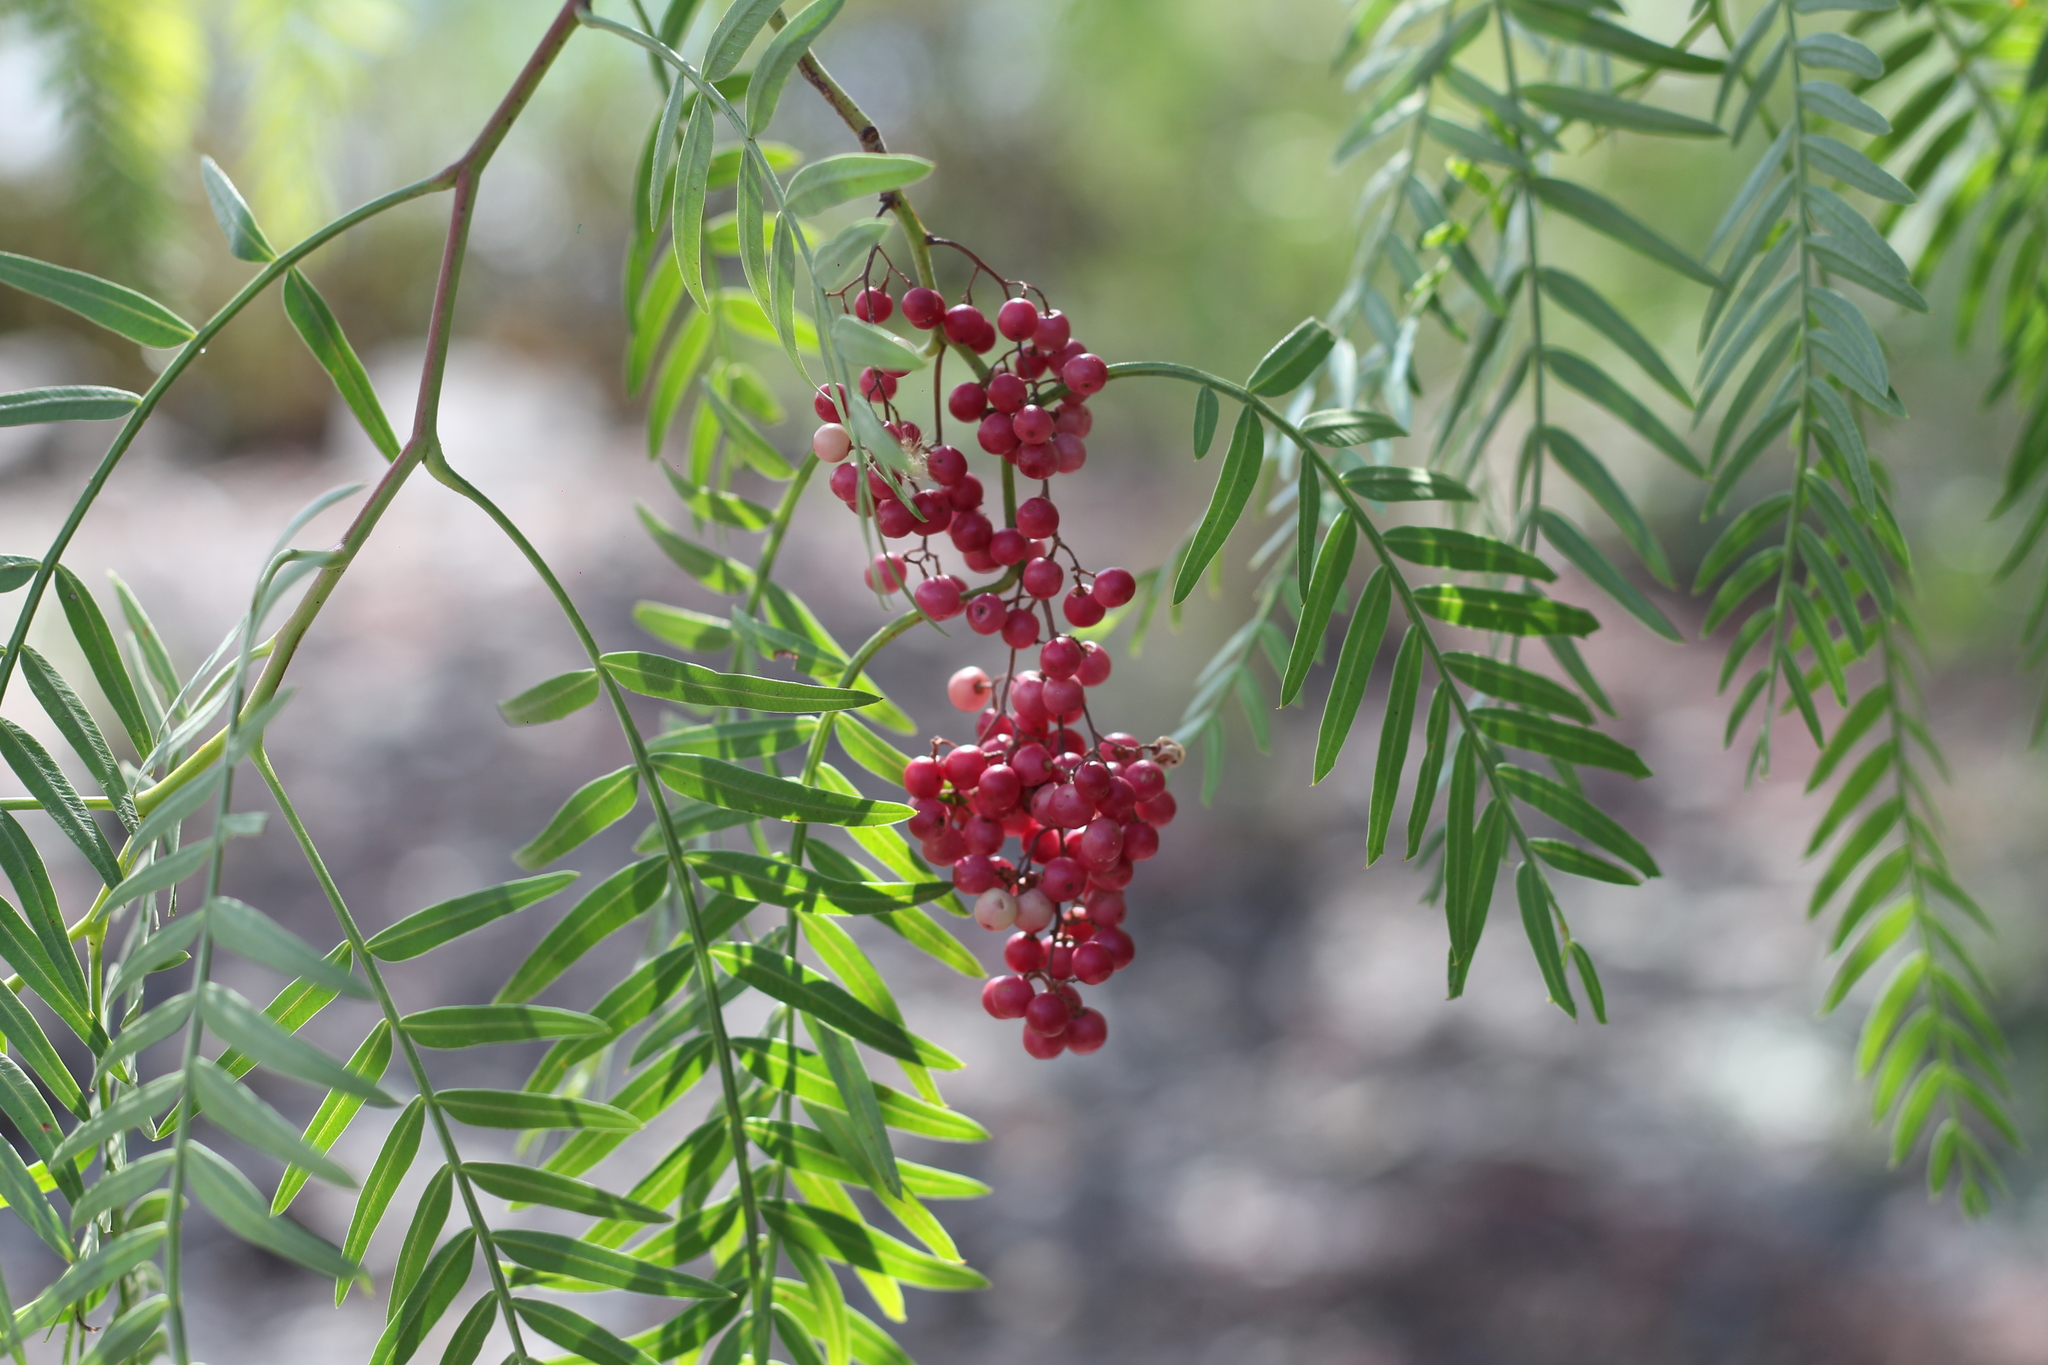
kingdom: Plantae
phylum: Tracheophyta
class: Magnoliopsida
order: Sapindales
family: Anacardiaceae
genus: Schinus
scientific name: Schinus areira
